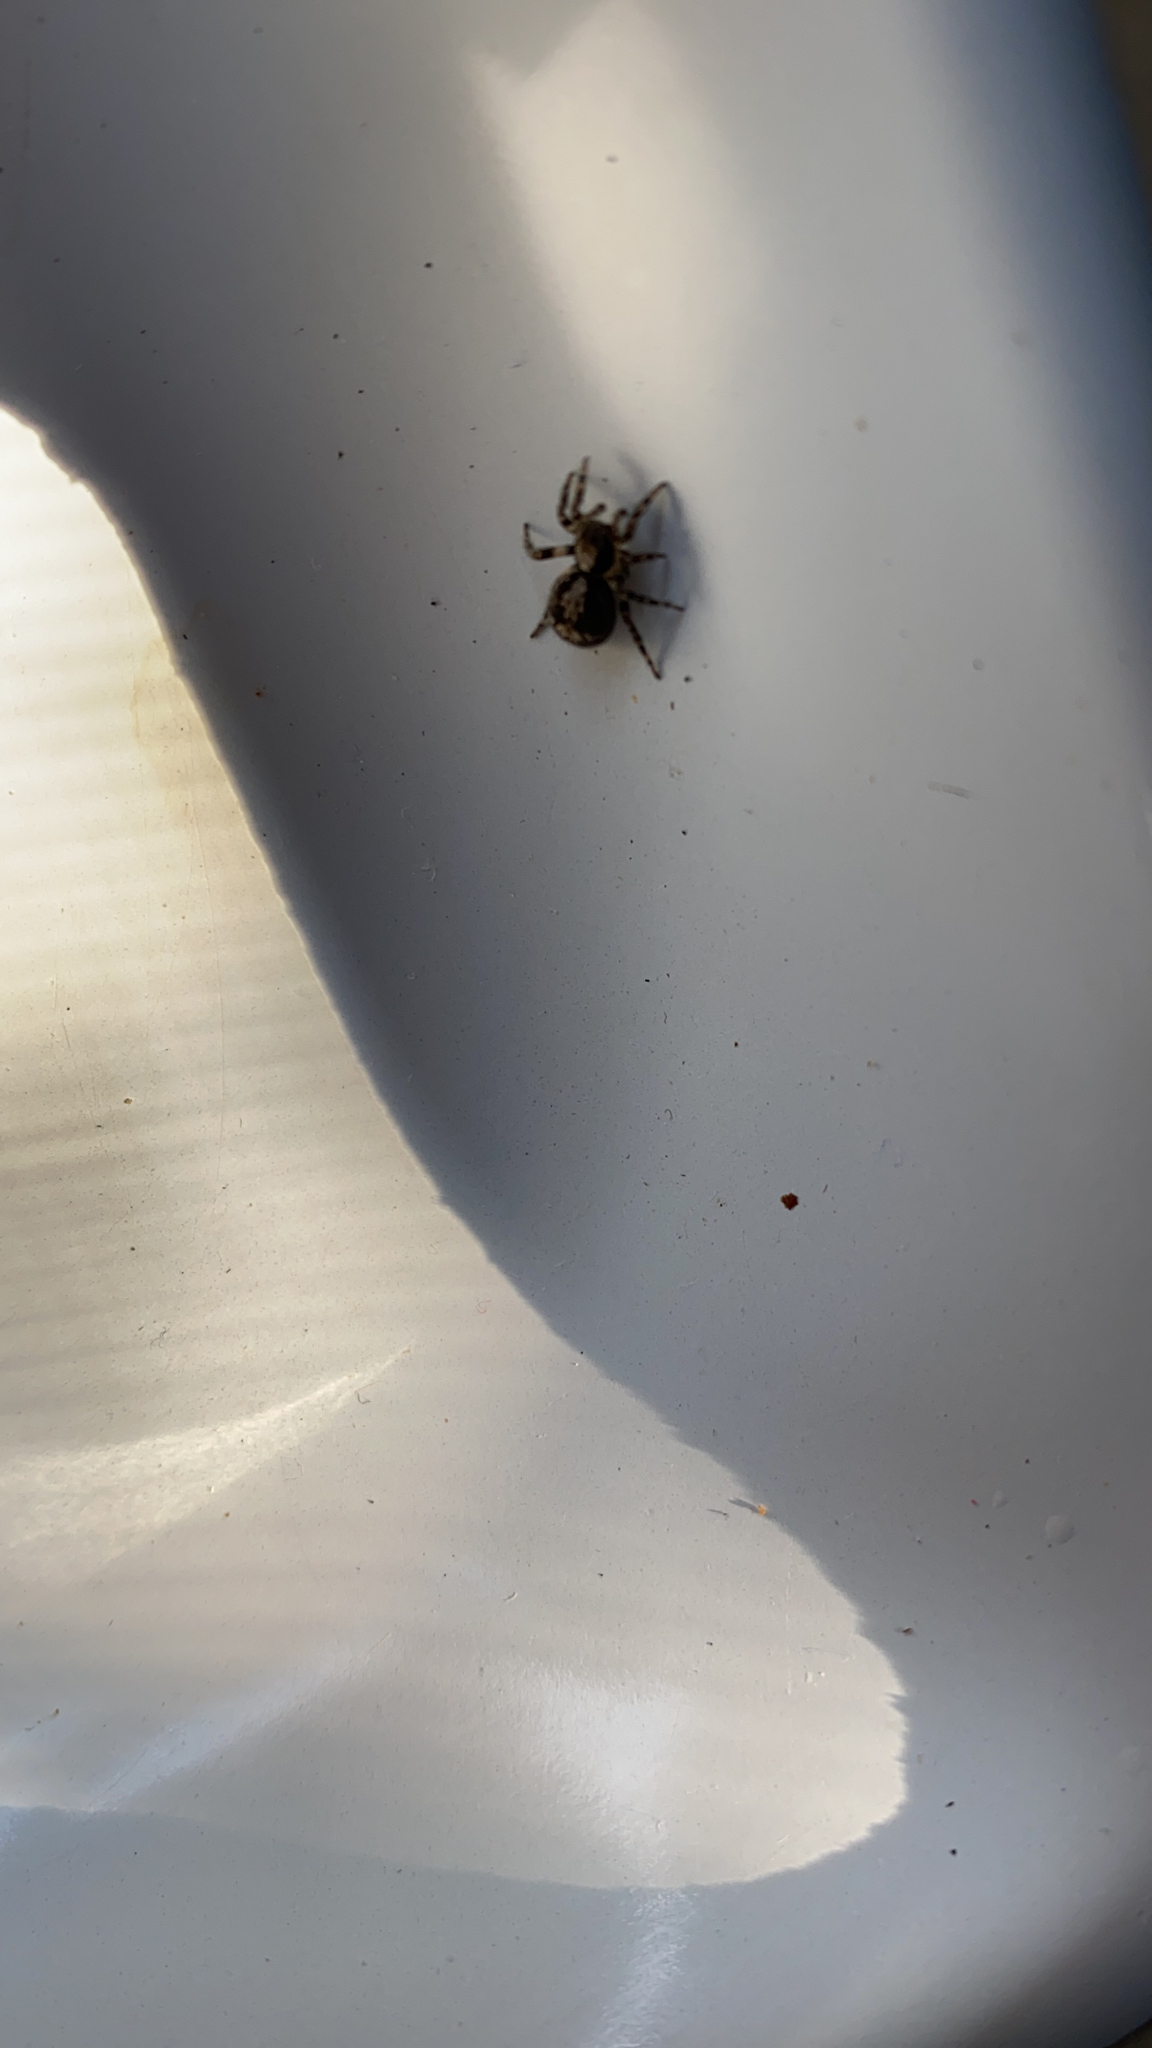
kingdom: Animalia
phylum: Arthropoda
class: Arachnida
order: Araneae
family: Salticidae
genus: Naphrys
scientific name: Naphrys pulex
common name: Flea jumping spider
